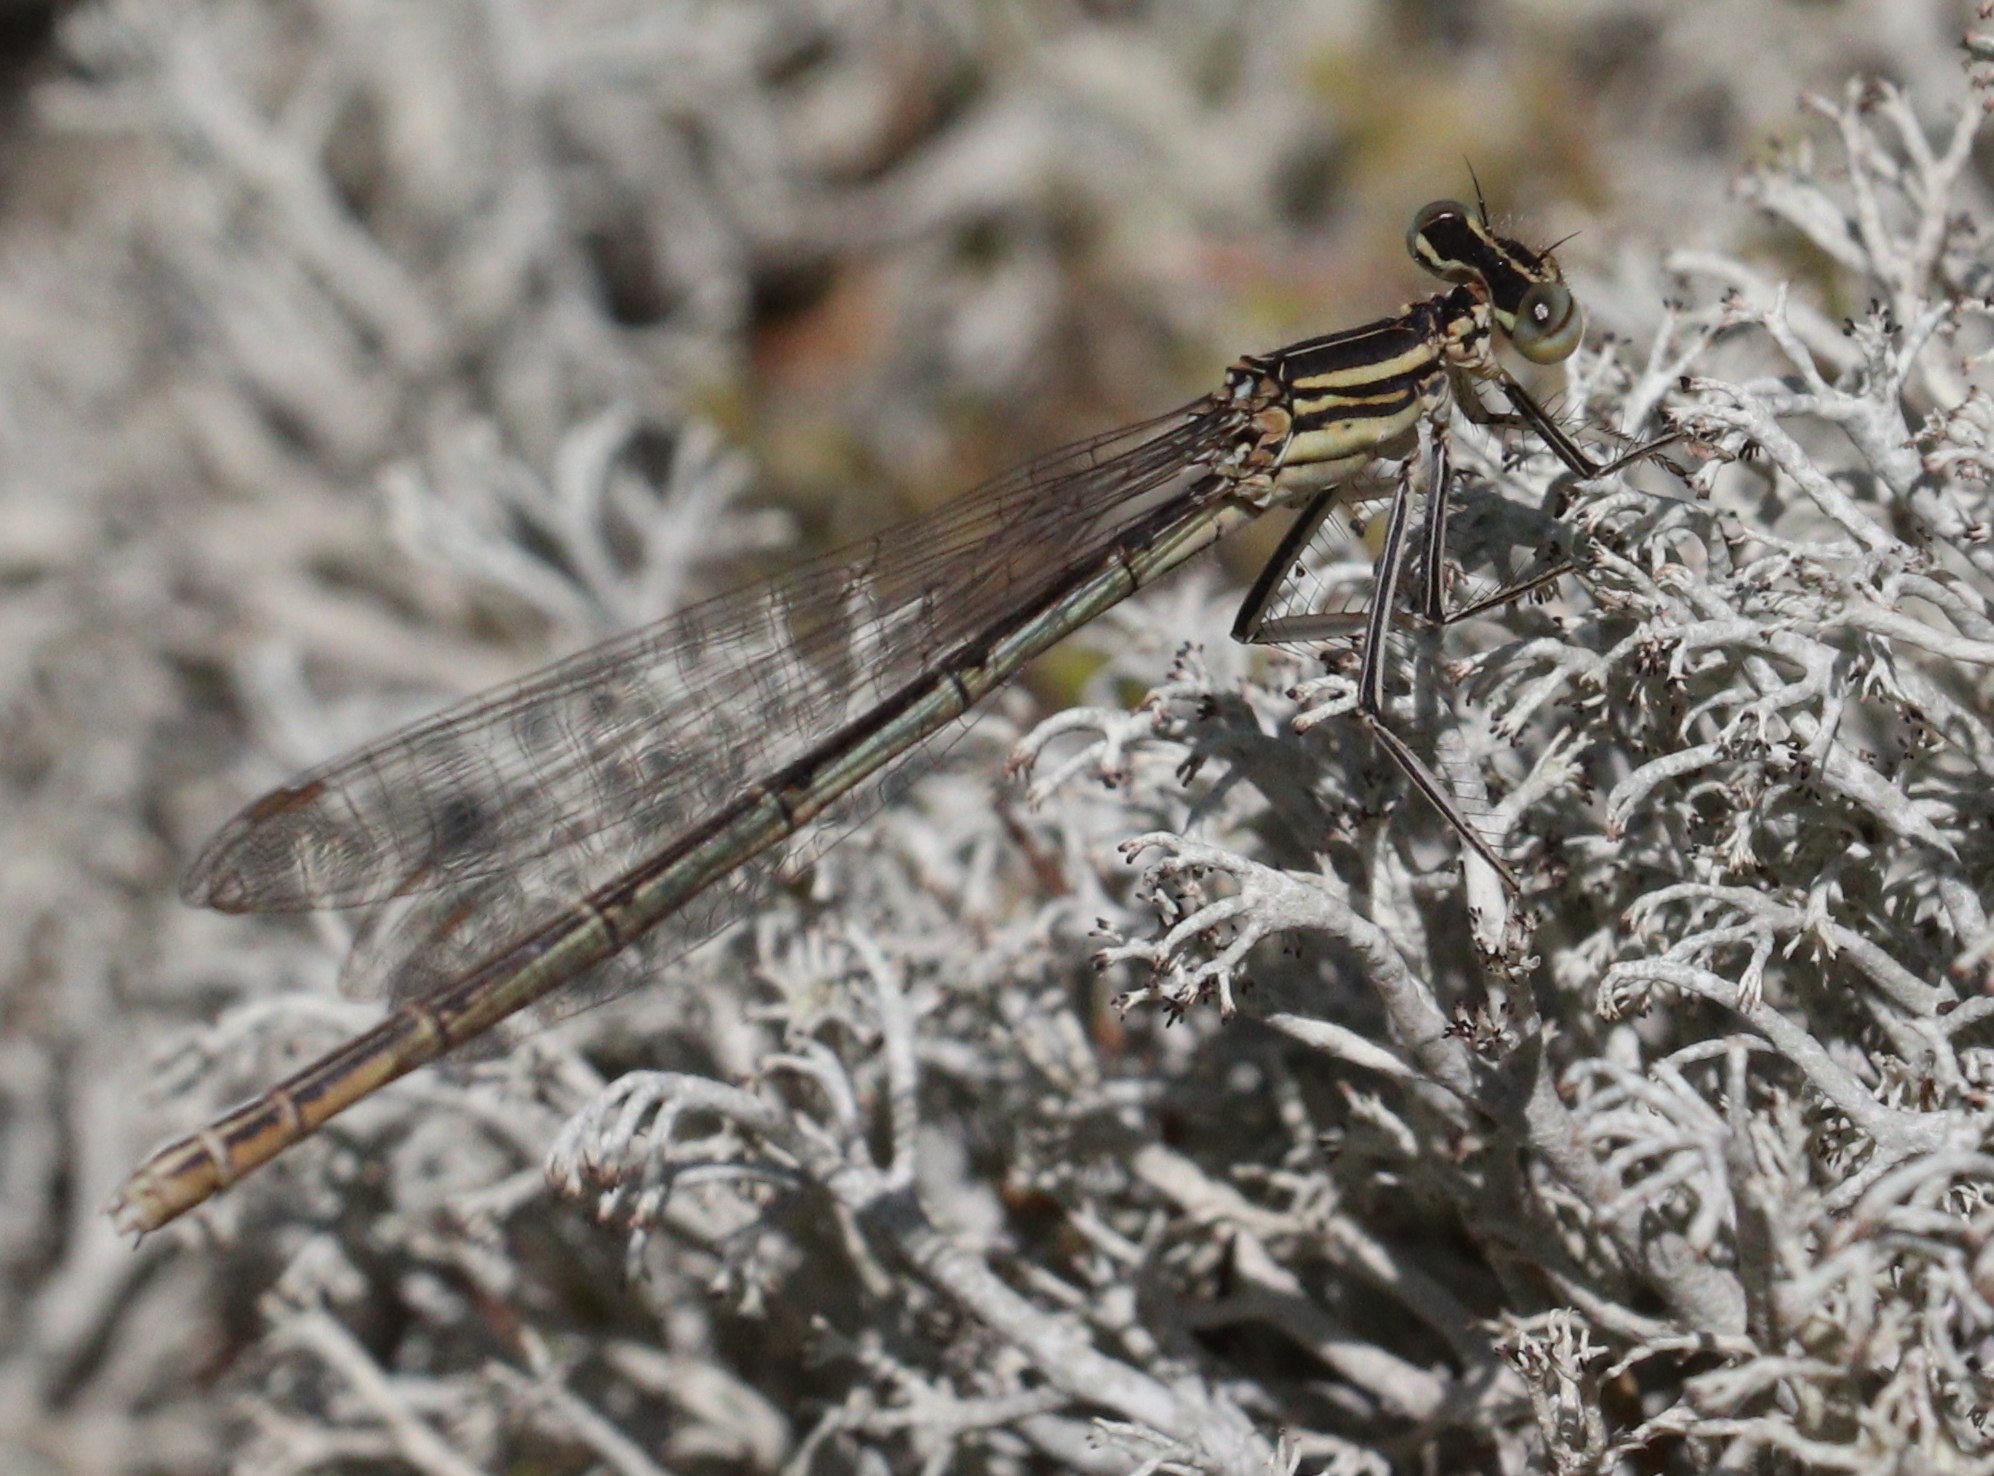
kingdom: Animalia
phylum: Arthropoda
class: Insecta
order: Odonata
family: Platycnemididae
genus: Platycnemis
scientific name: Platycnemis pennipes
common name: White-legged damselfly
